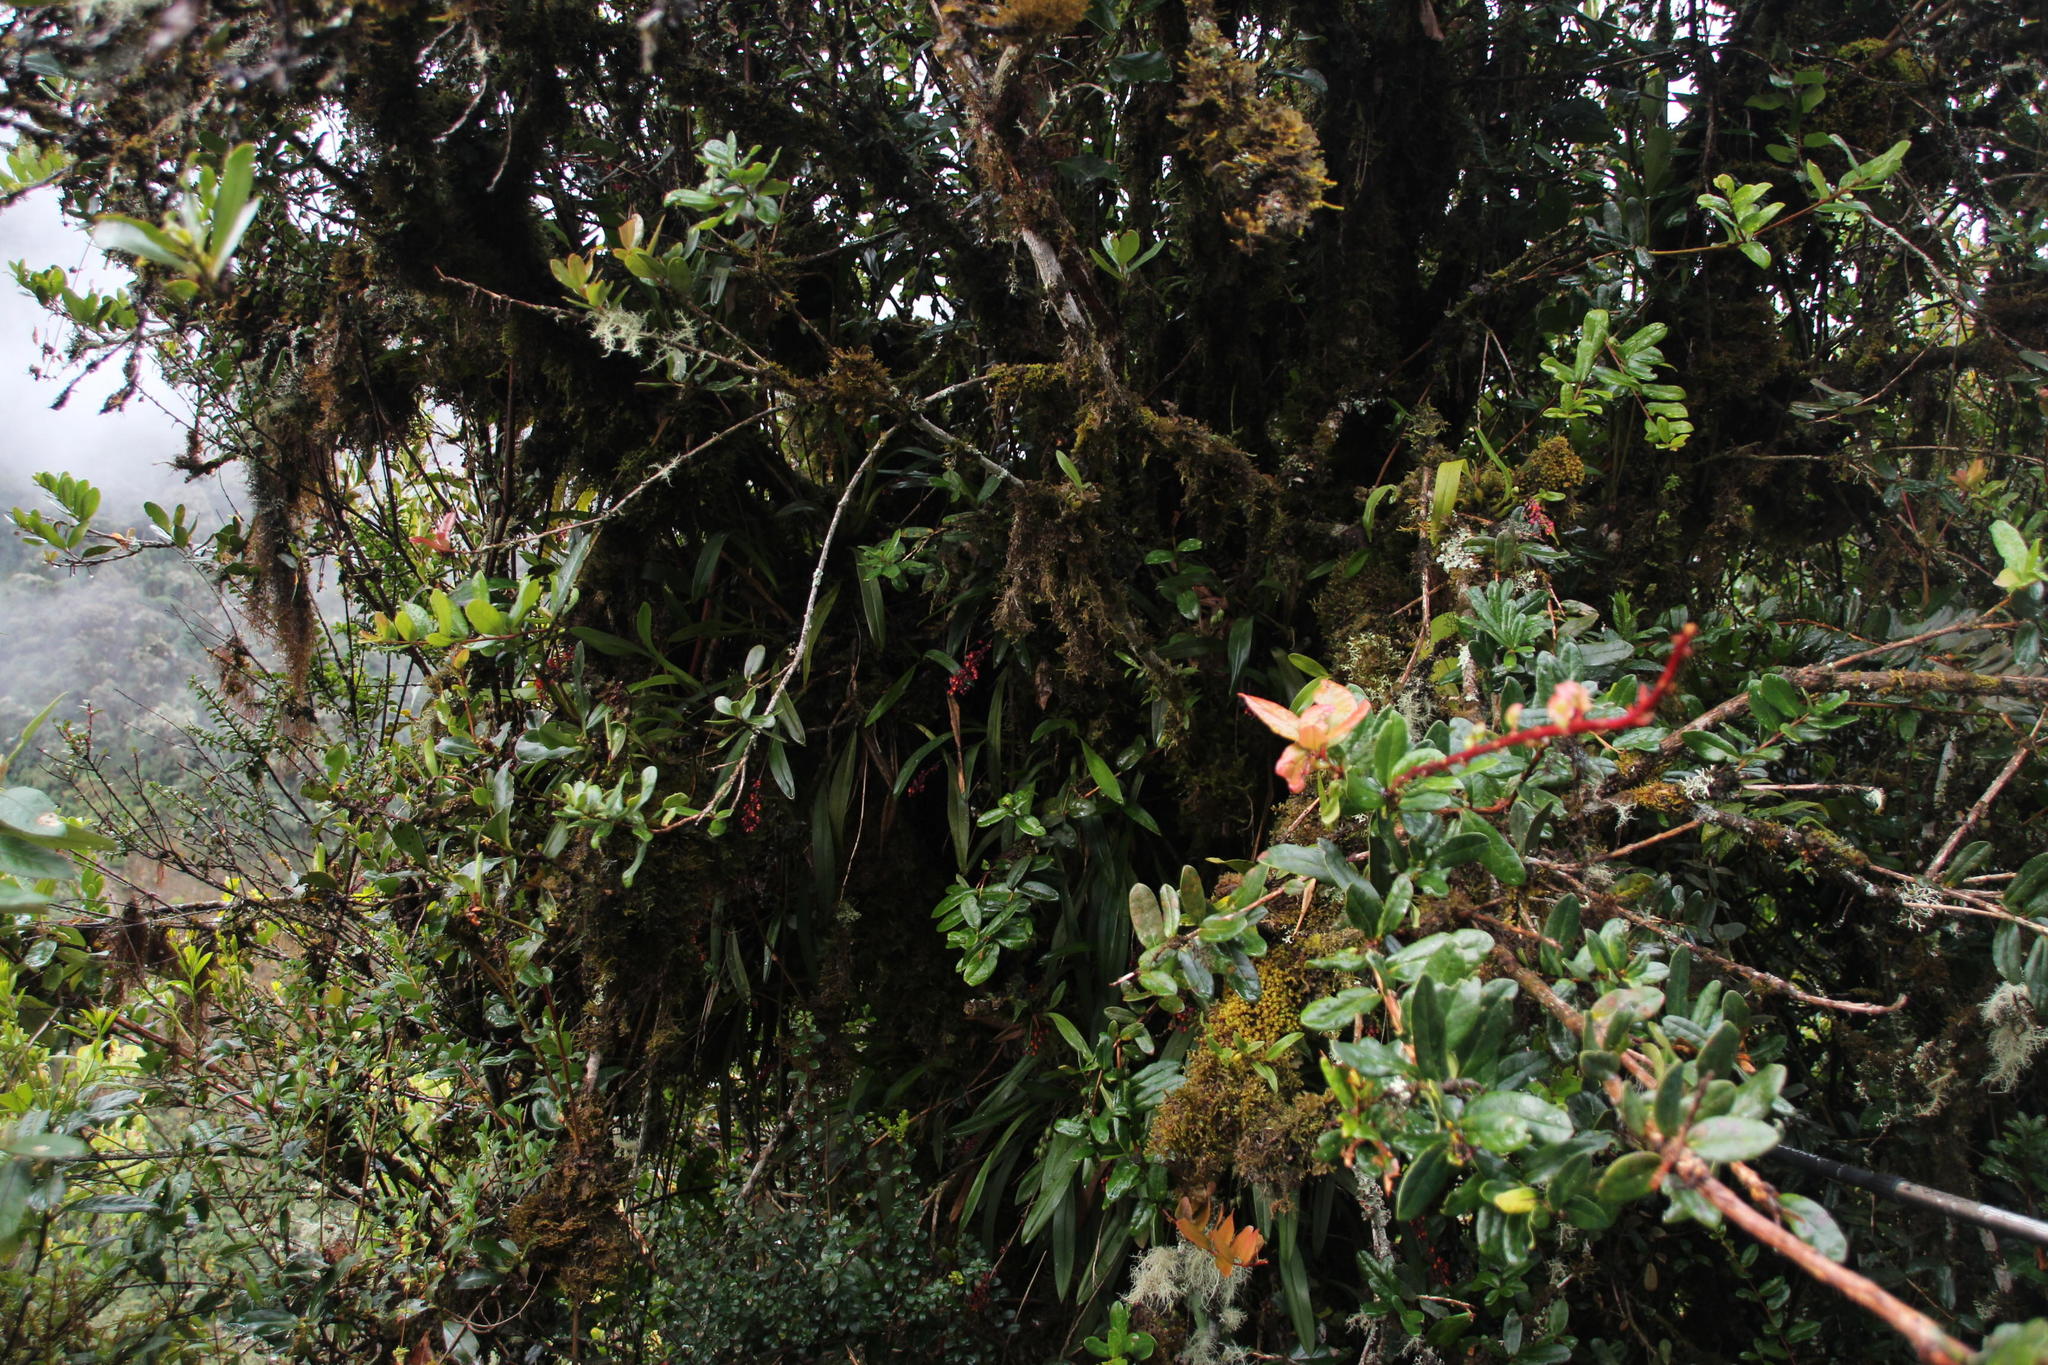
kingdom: Plantae
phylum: Tracheophyta
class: Magnoliopsida
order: Malpighiales
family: Passifloraceae
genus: Passiflora
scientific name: Passiflora mixta
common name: Passion flower
